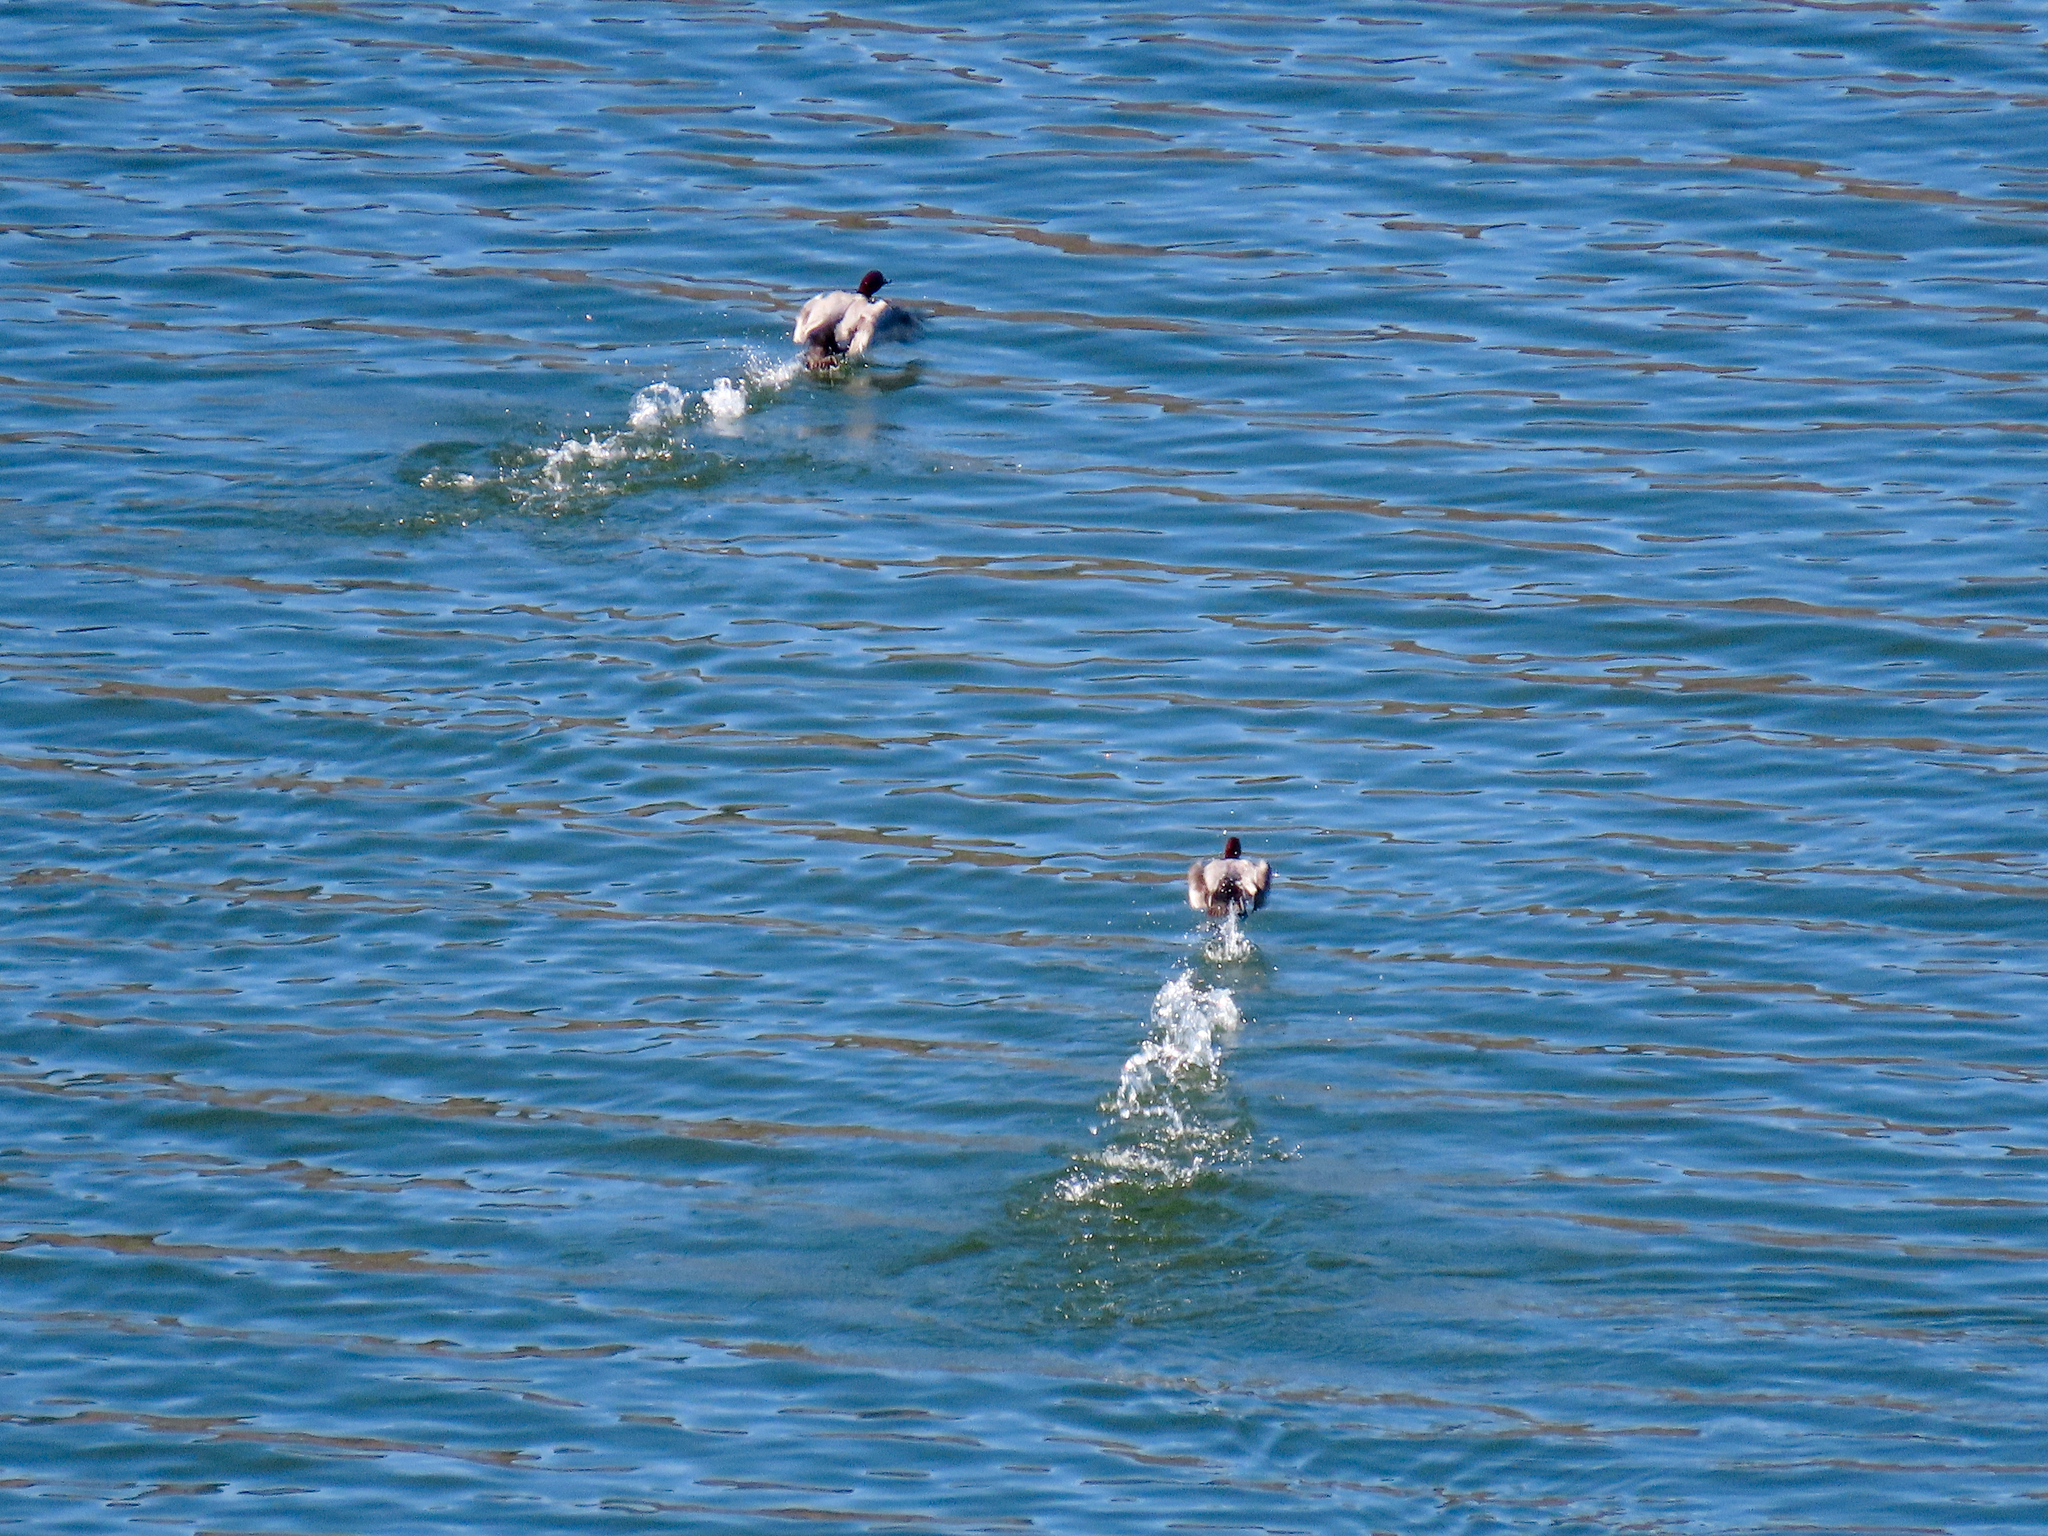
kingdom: Animalia
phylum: Chordata
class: Aves
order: Anseriformes
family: Anatidae
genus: Aythya
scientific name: Aythya ferina
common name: Common pochard
